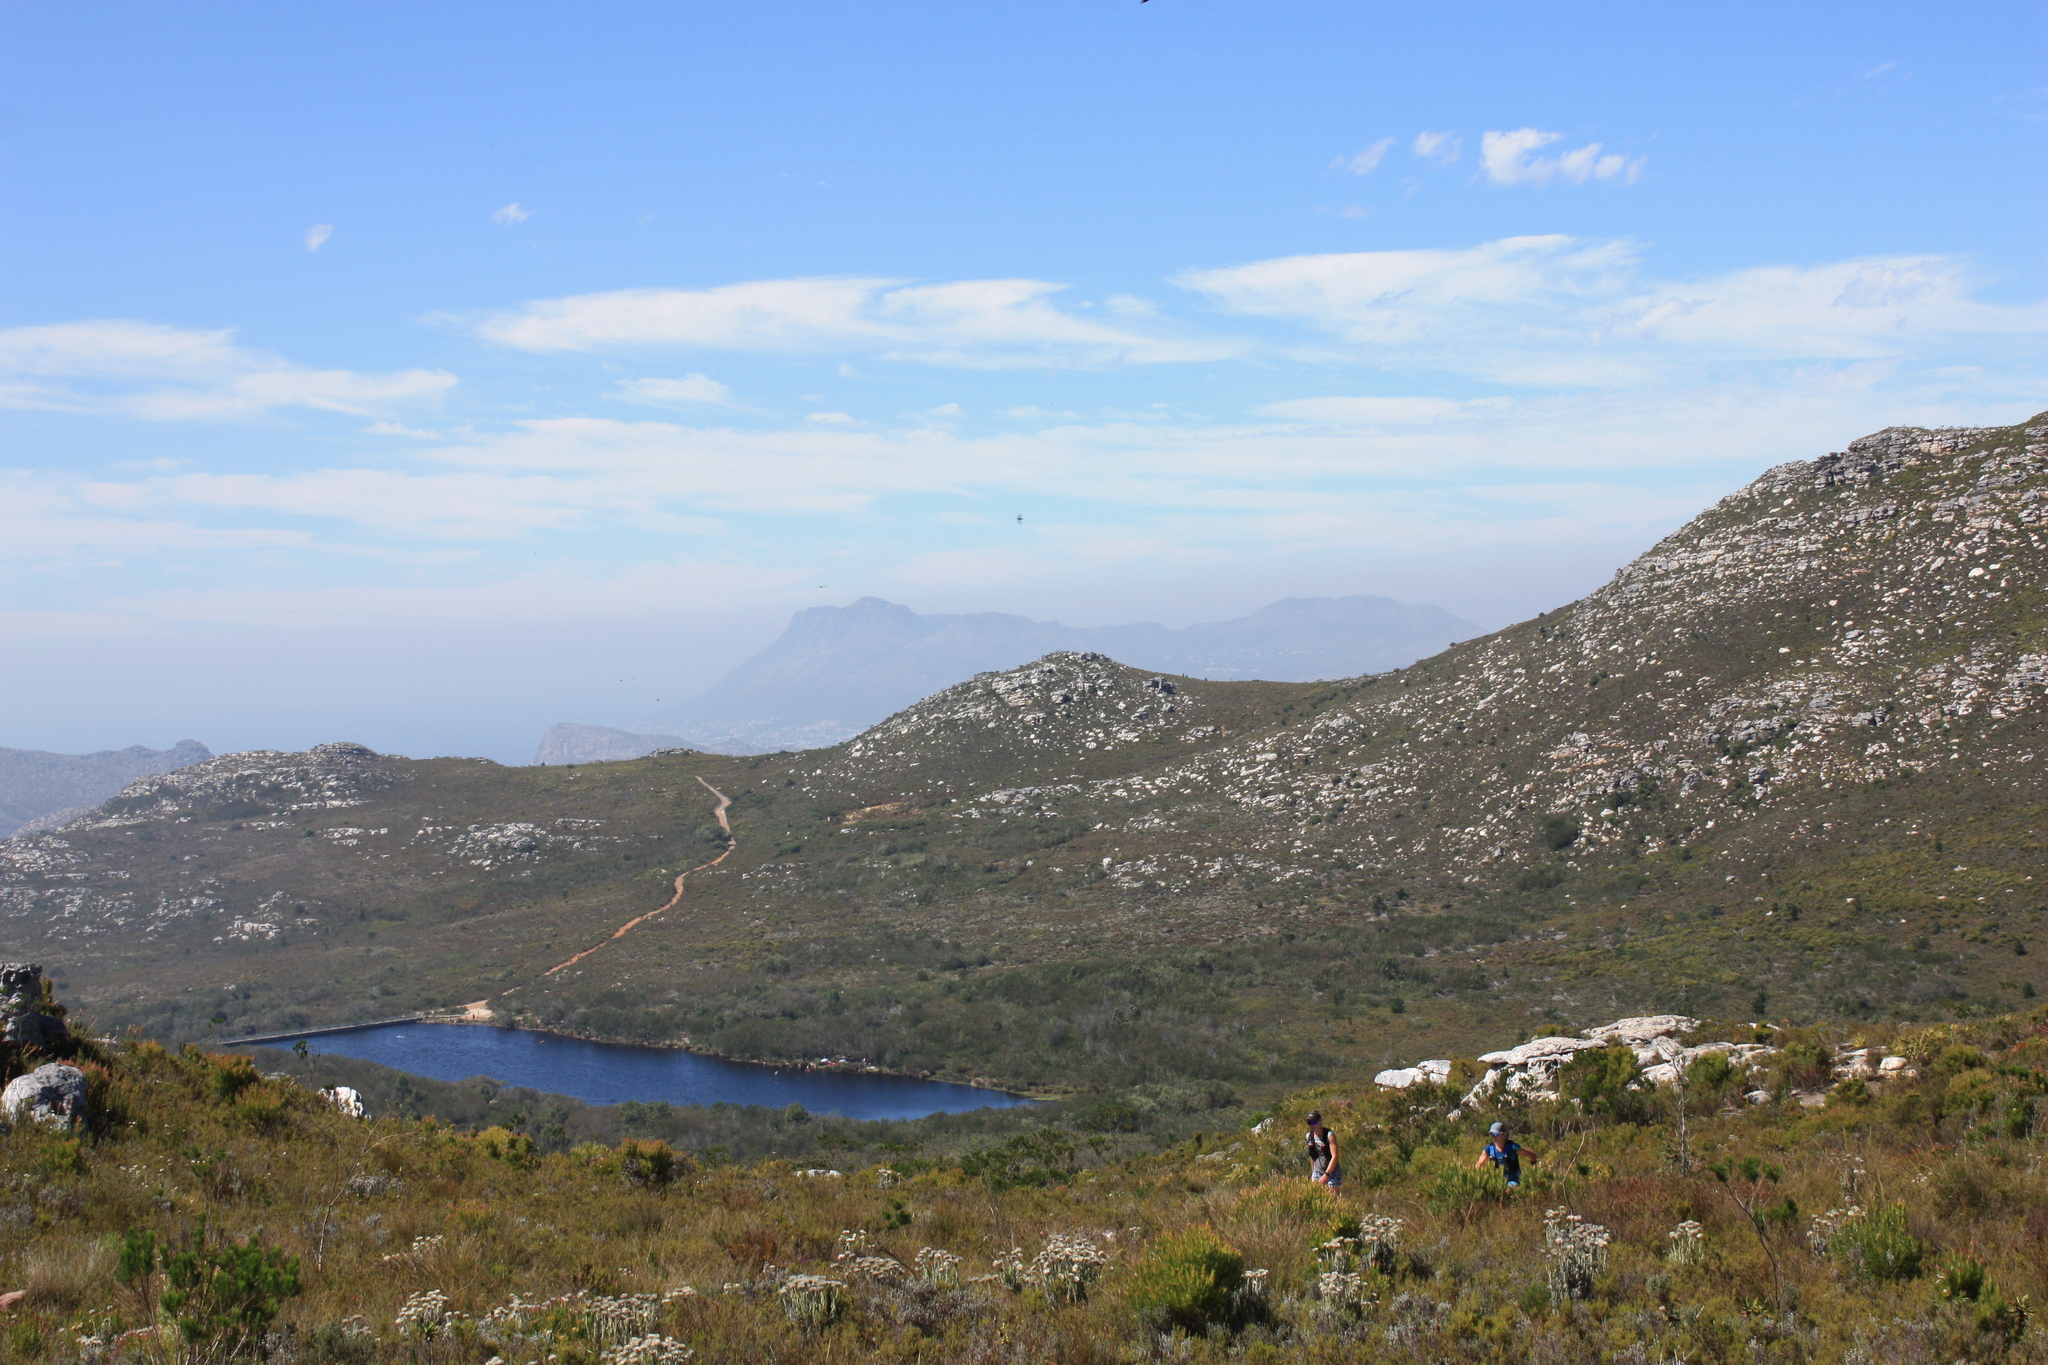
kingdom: Plantae
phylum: Tracheophyta
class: Magnoliopsida
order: Asterales
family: Asteraceae
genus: Syncarpha
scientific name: Syncarpha vestita
